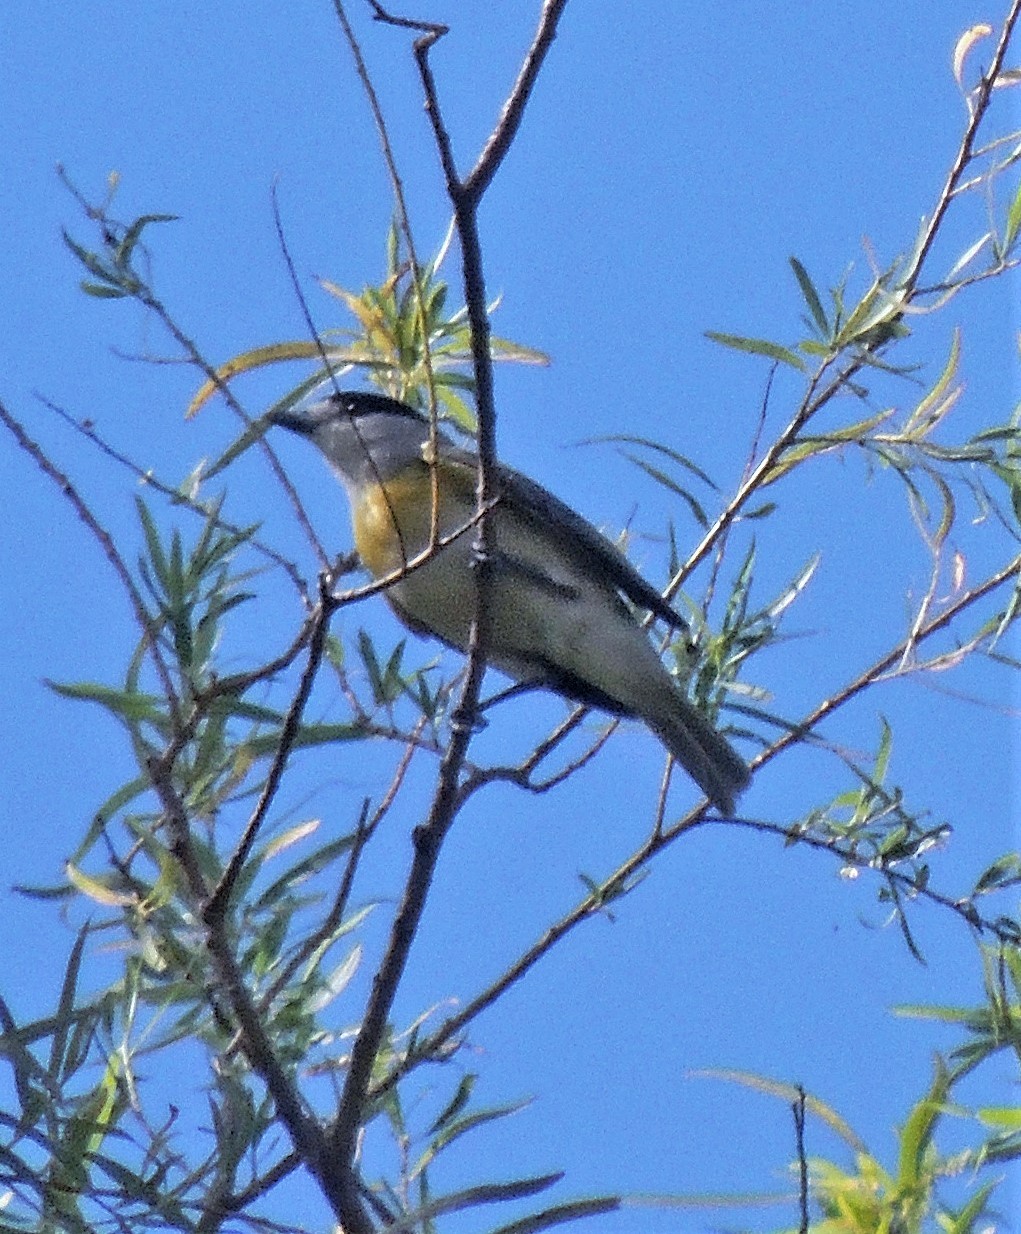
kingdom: Animalia
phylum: Chordata
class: Aves
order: Passeriformes
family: Cotingidae
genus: Pachyramphus
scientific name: Pachyramphus viridis
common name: Green-backed becard
